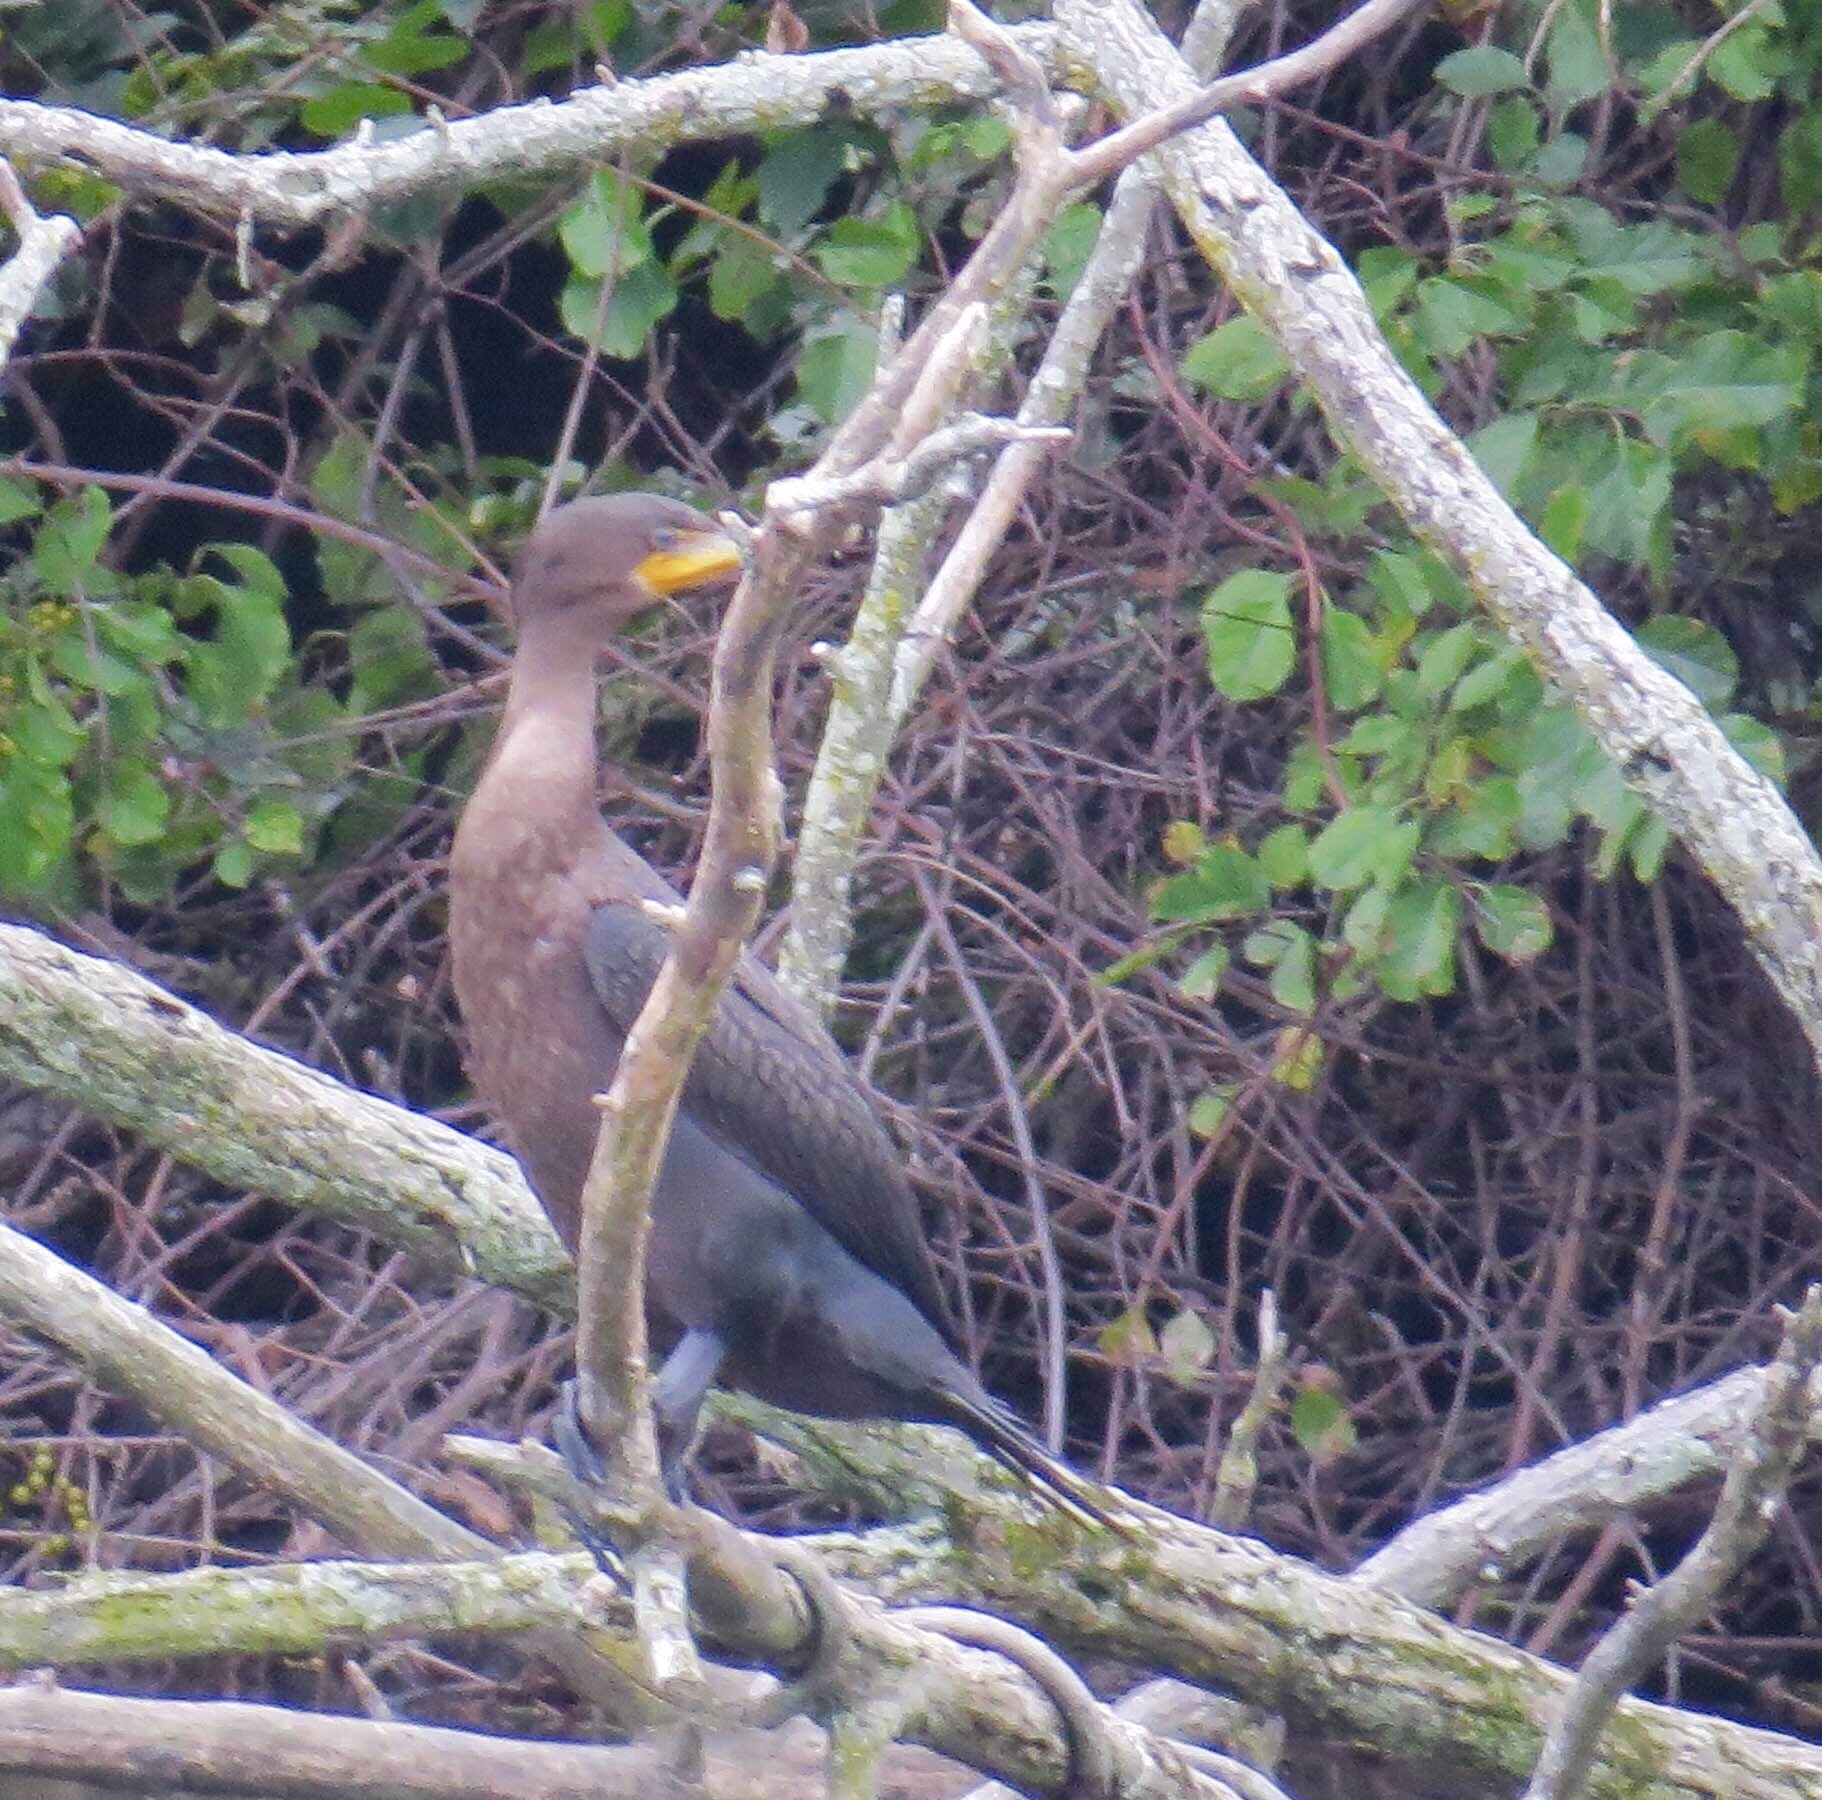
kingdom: Animalia
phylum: Chordata
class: Aves
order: Suliformes
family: Phalacrocoracidae
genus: Phalacrocorax
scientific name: Phalacrocorax auritus
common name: Double-crested cormorant
